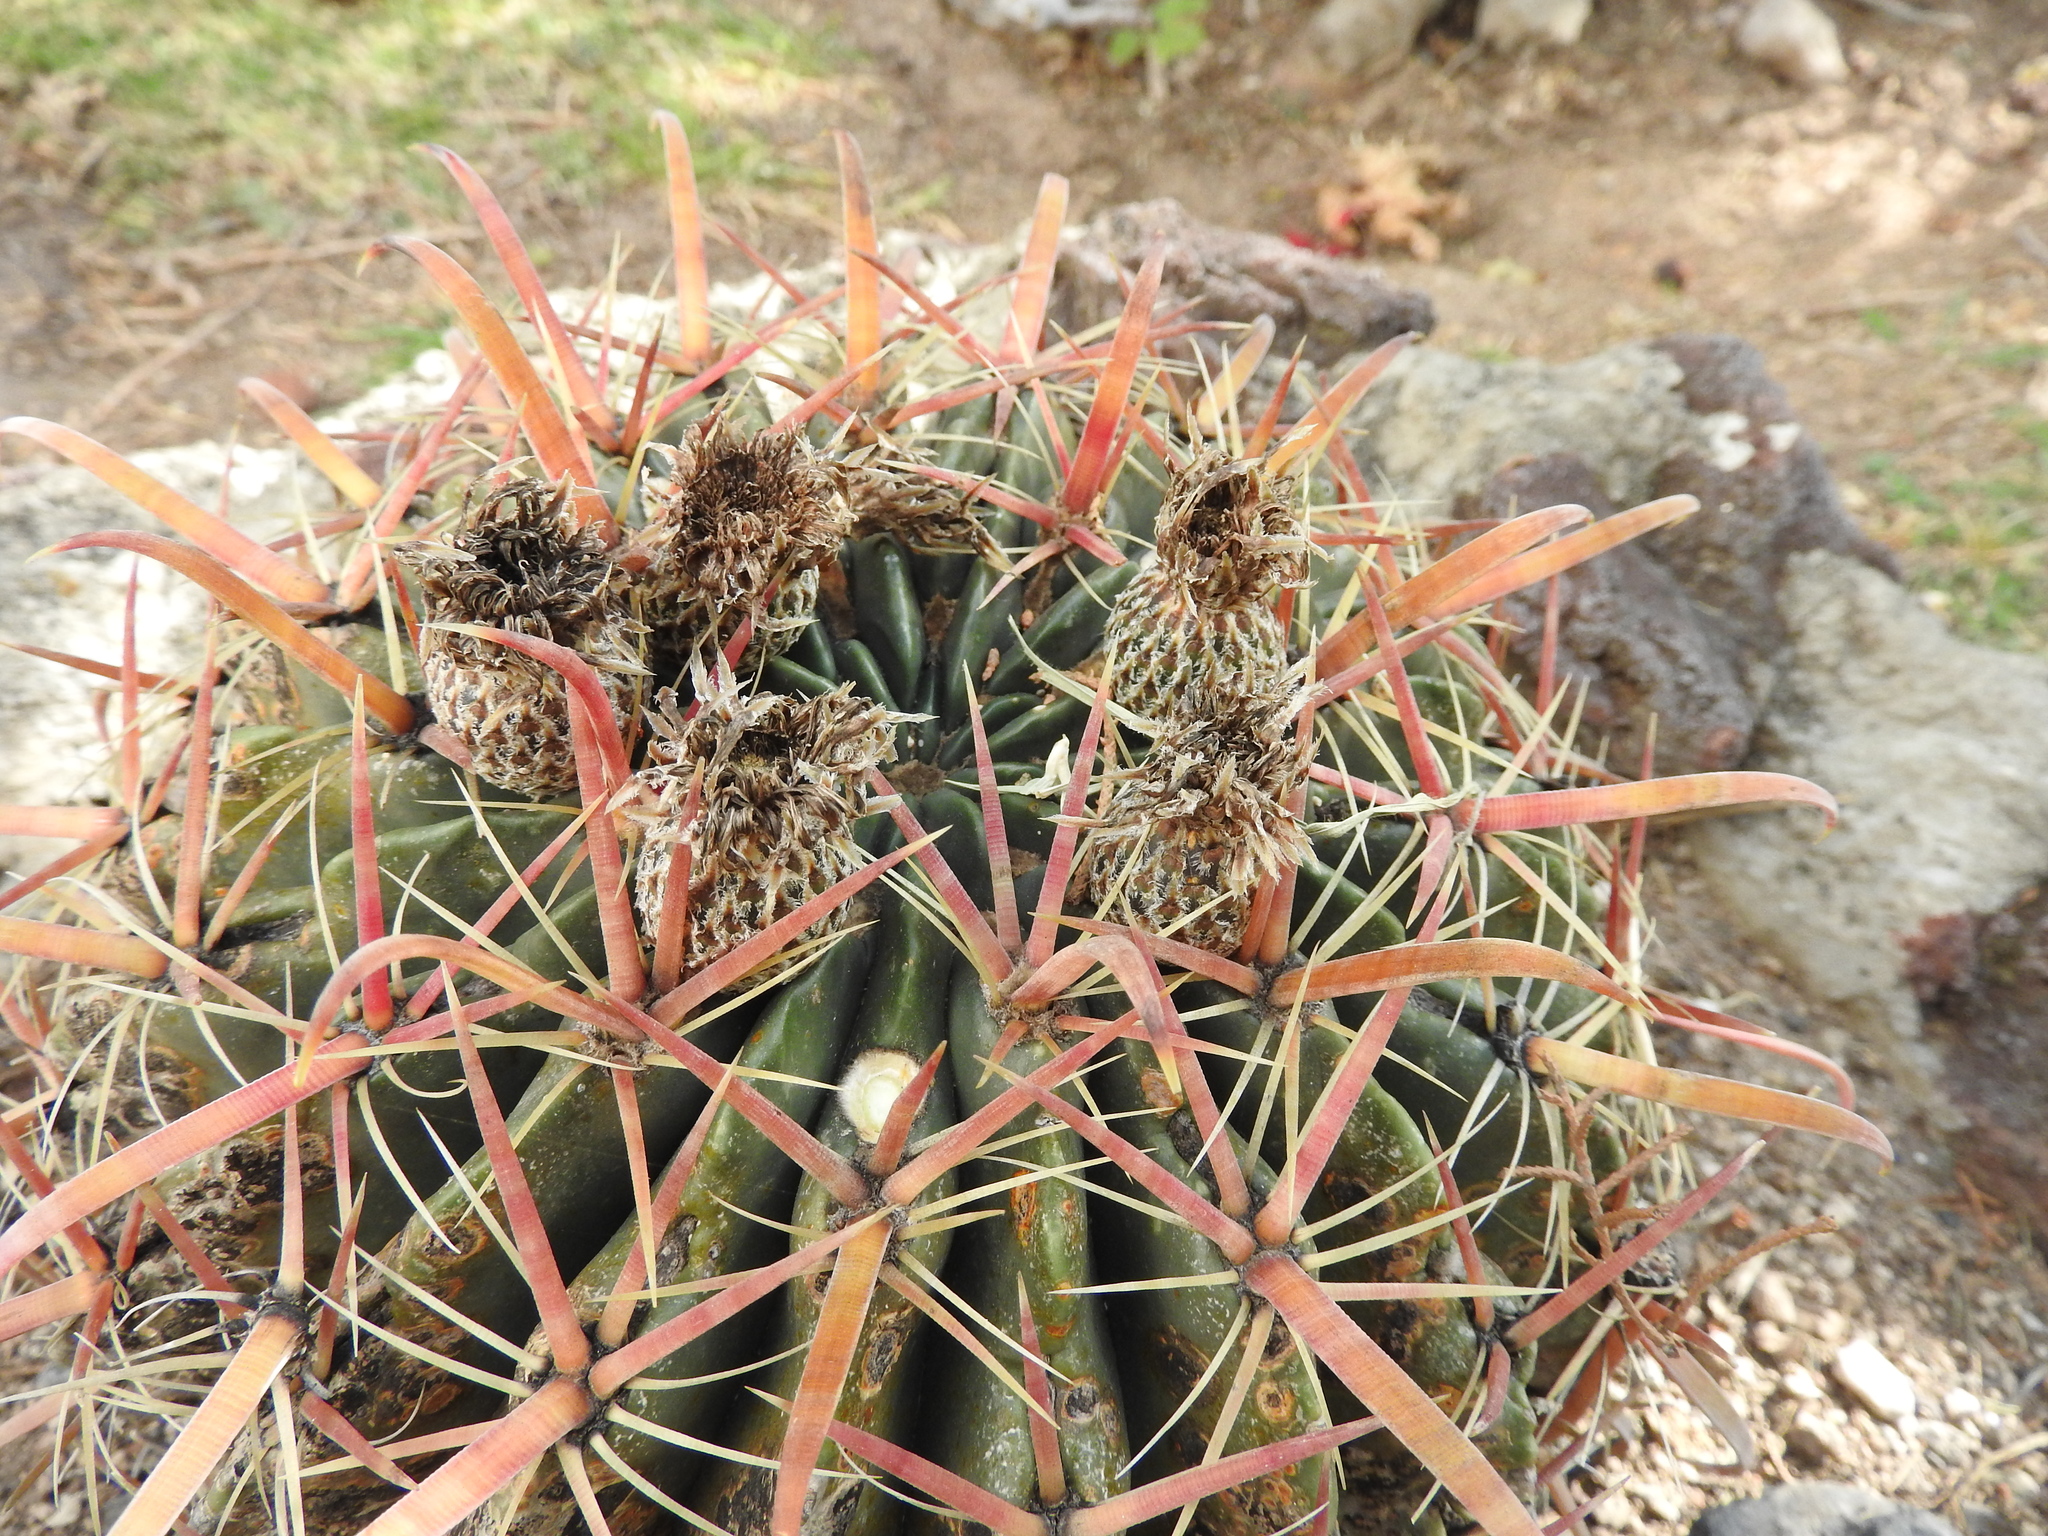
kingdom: Plantae
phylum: Tracheophyta
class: Magnoliopsida
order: Caryophyllales
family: Cactaceae
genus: Ferocactus
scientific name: Ferocactus latispinus
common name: Devil's-tongue cactus
